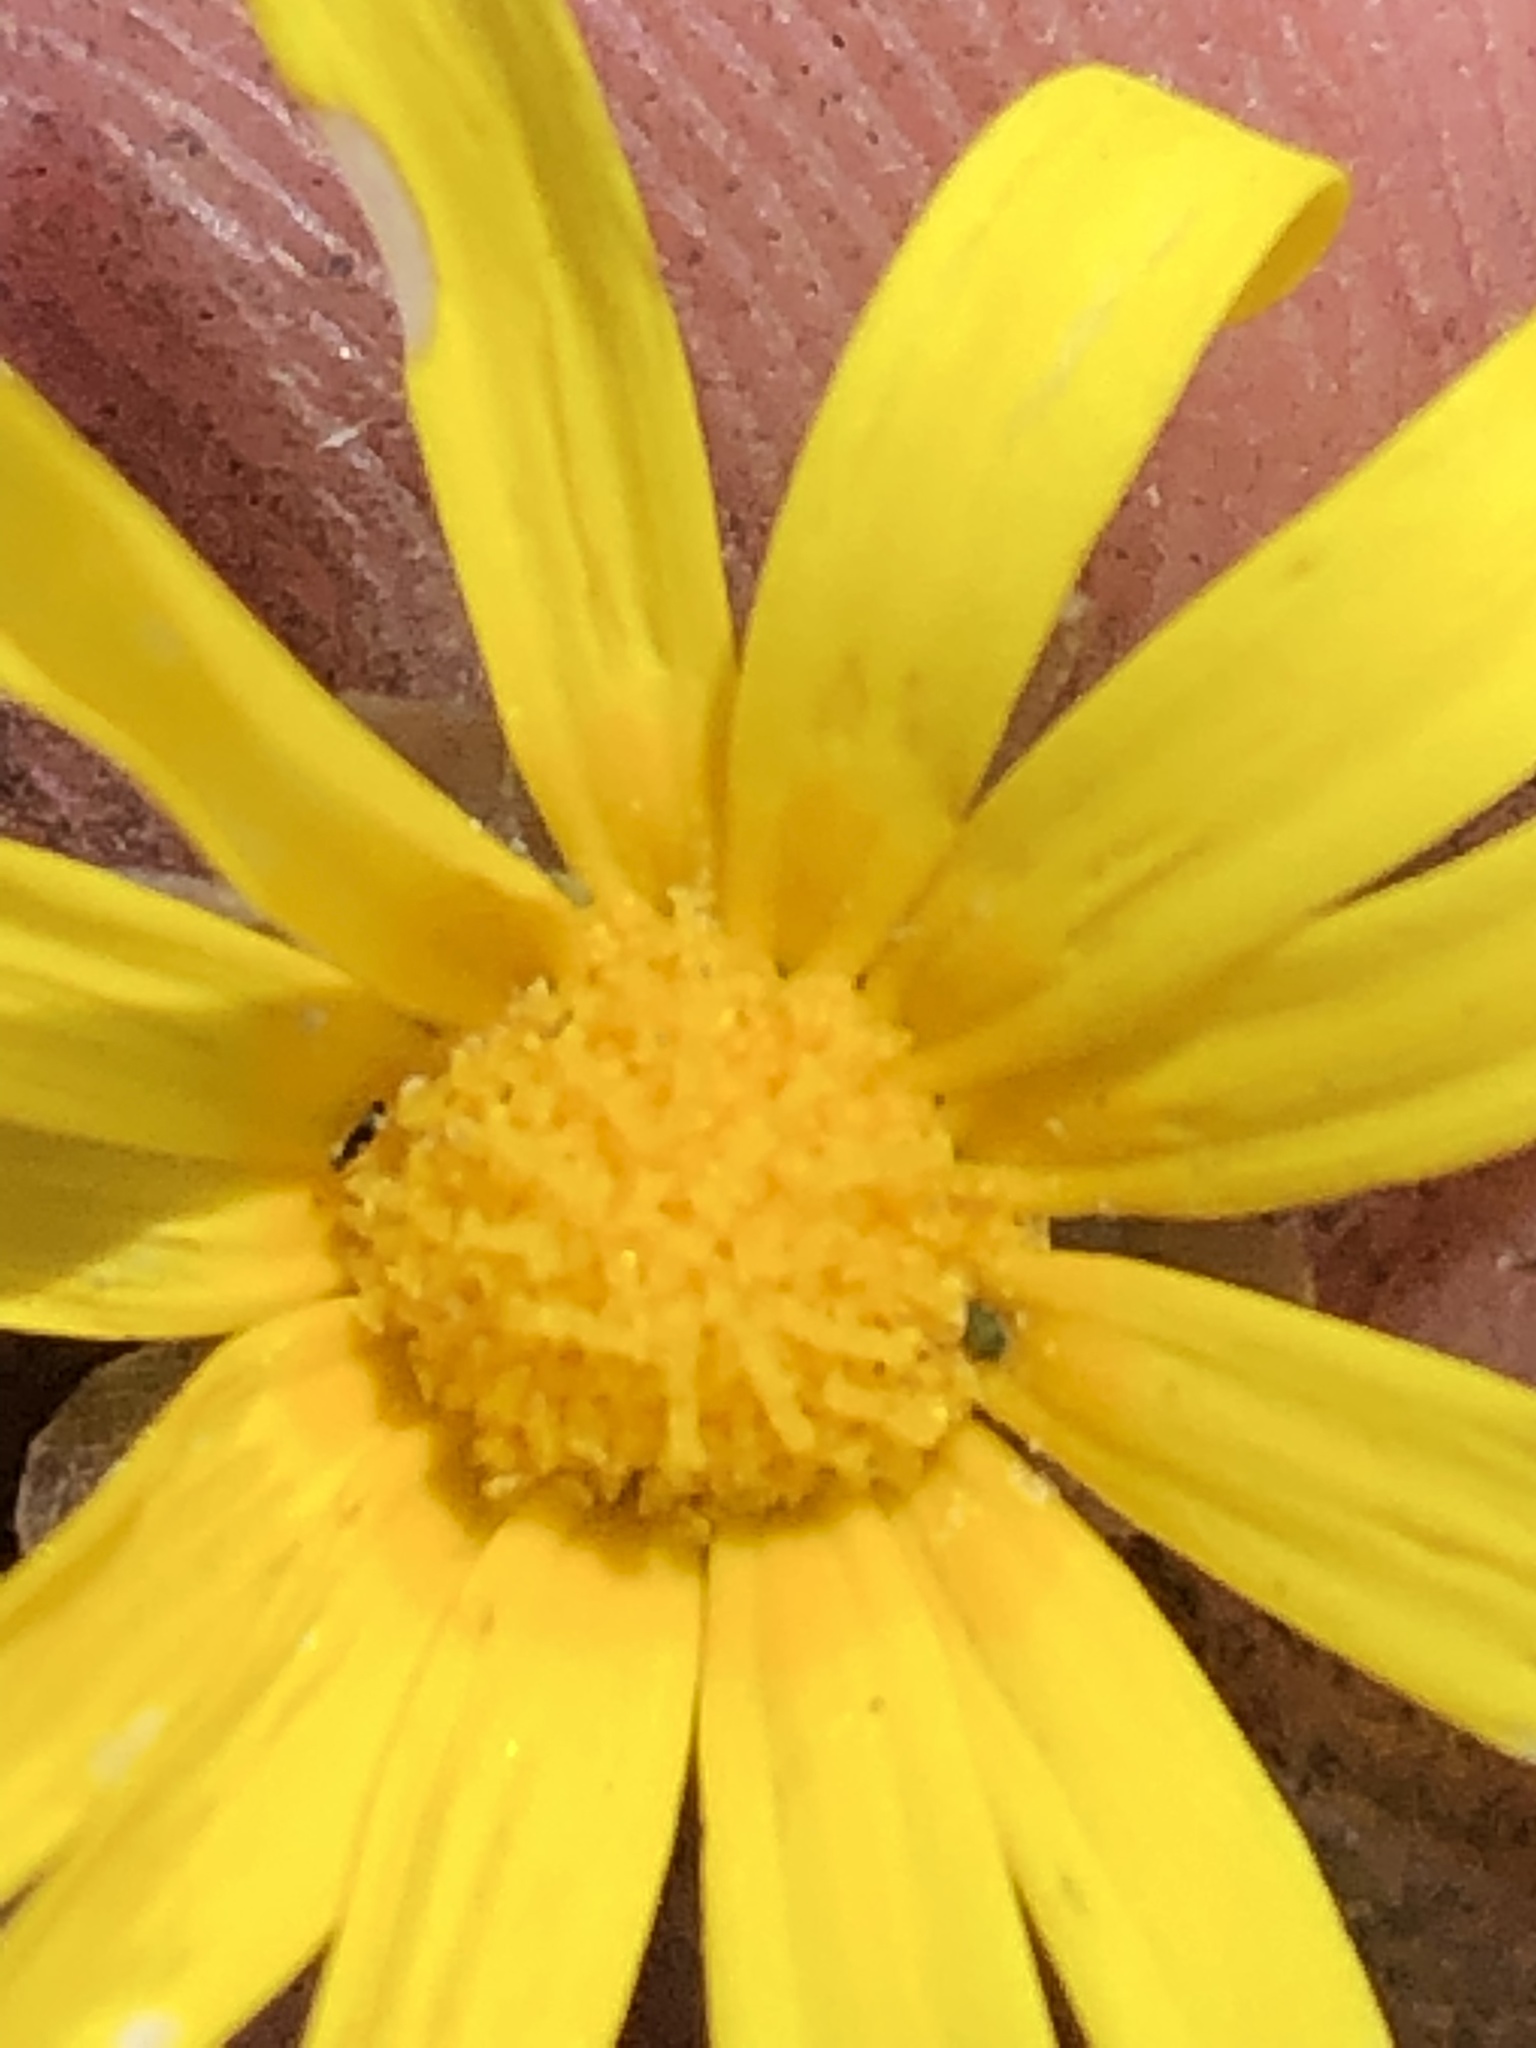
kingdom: Plantae
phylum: Tracheophyta
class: Magnoliopsida
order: Asterales
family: Asteraceae
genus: Ursinia
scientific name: Ursinia paleacea
